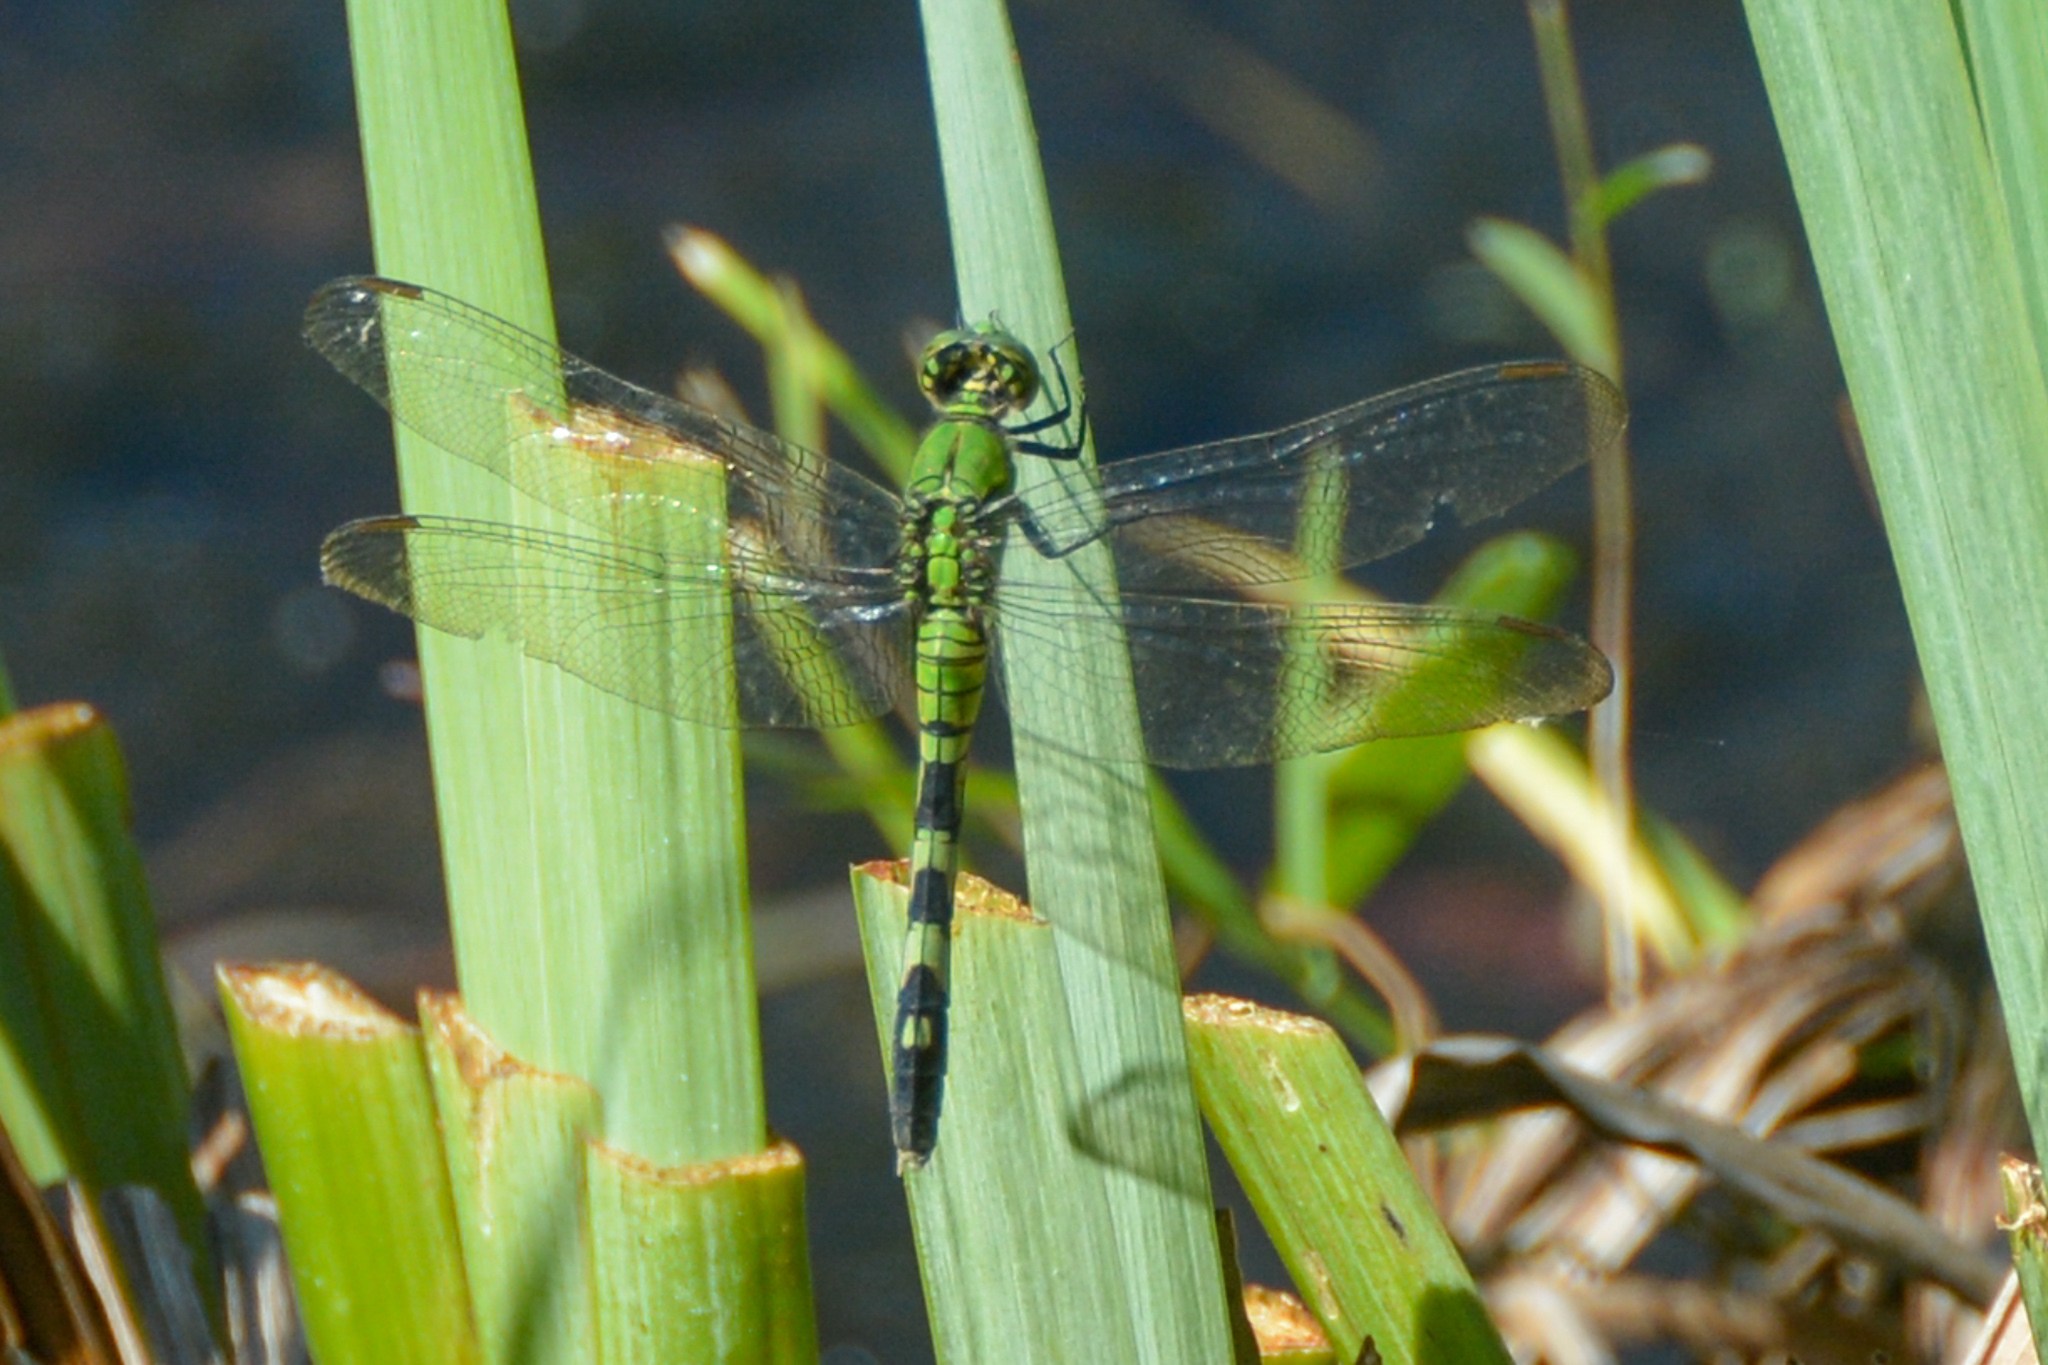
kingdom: Animalia
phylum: Arthropoda
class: Insecta
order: Odonata
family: Libellulidae
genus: Erythemis
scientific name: Erythemis simplicicollis
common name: Eastern pondhawk
